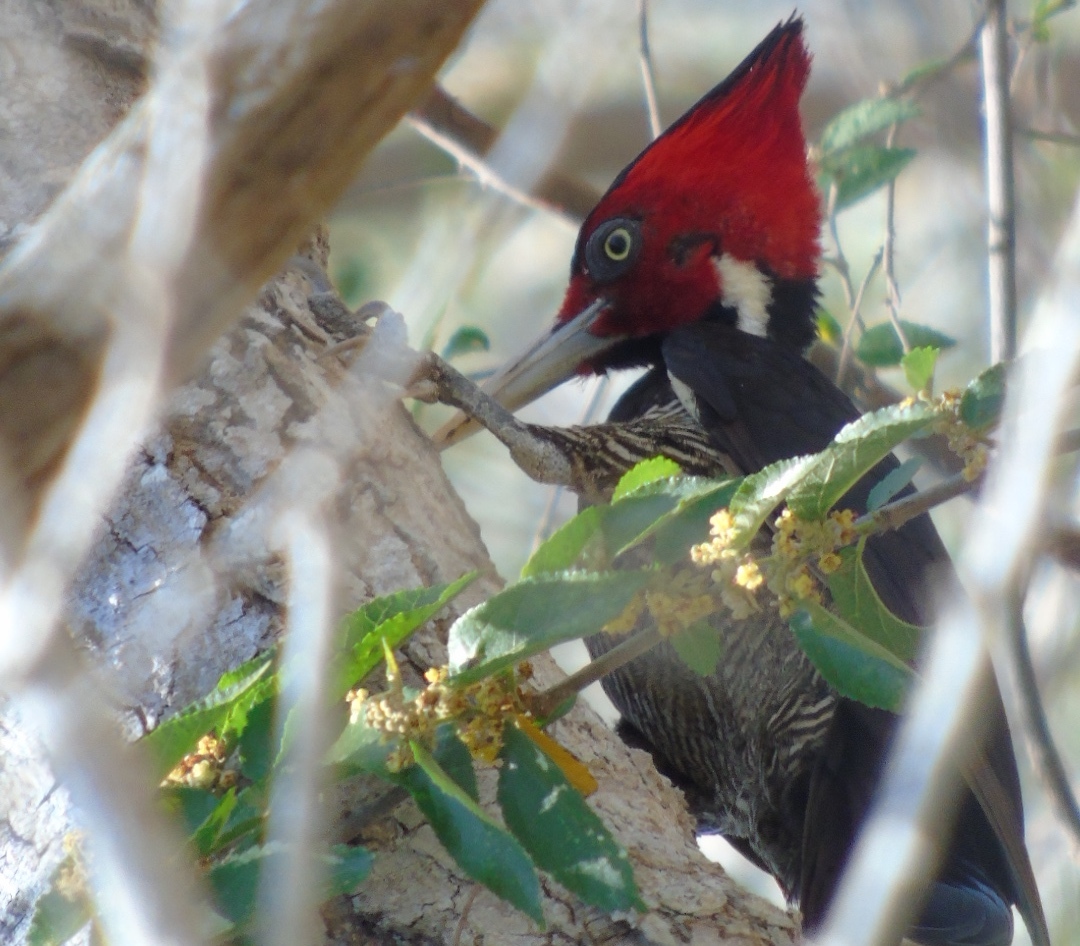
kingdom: Animalia
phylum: Chordata
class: Aves
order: Piciformes
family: Picidae
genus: Campephilus
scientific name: Campephilus guatemalensis
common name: Pale-billed woodpecker
